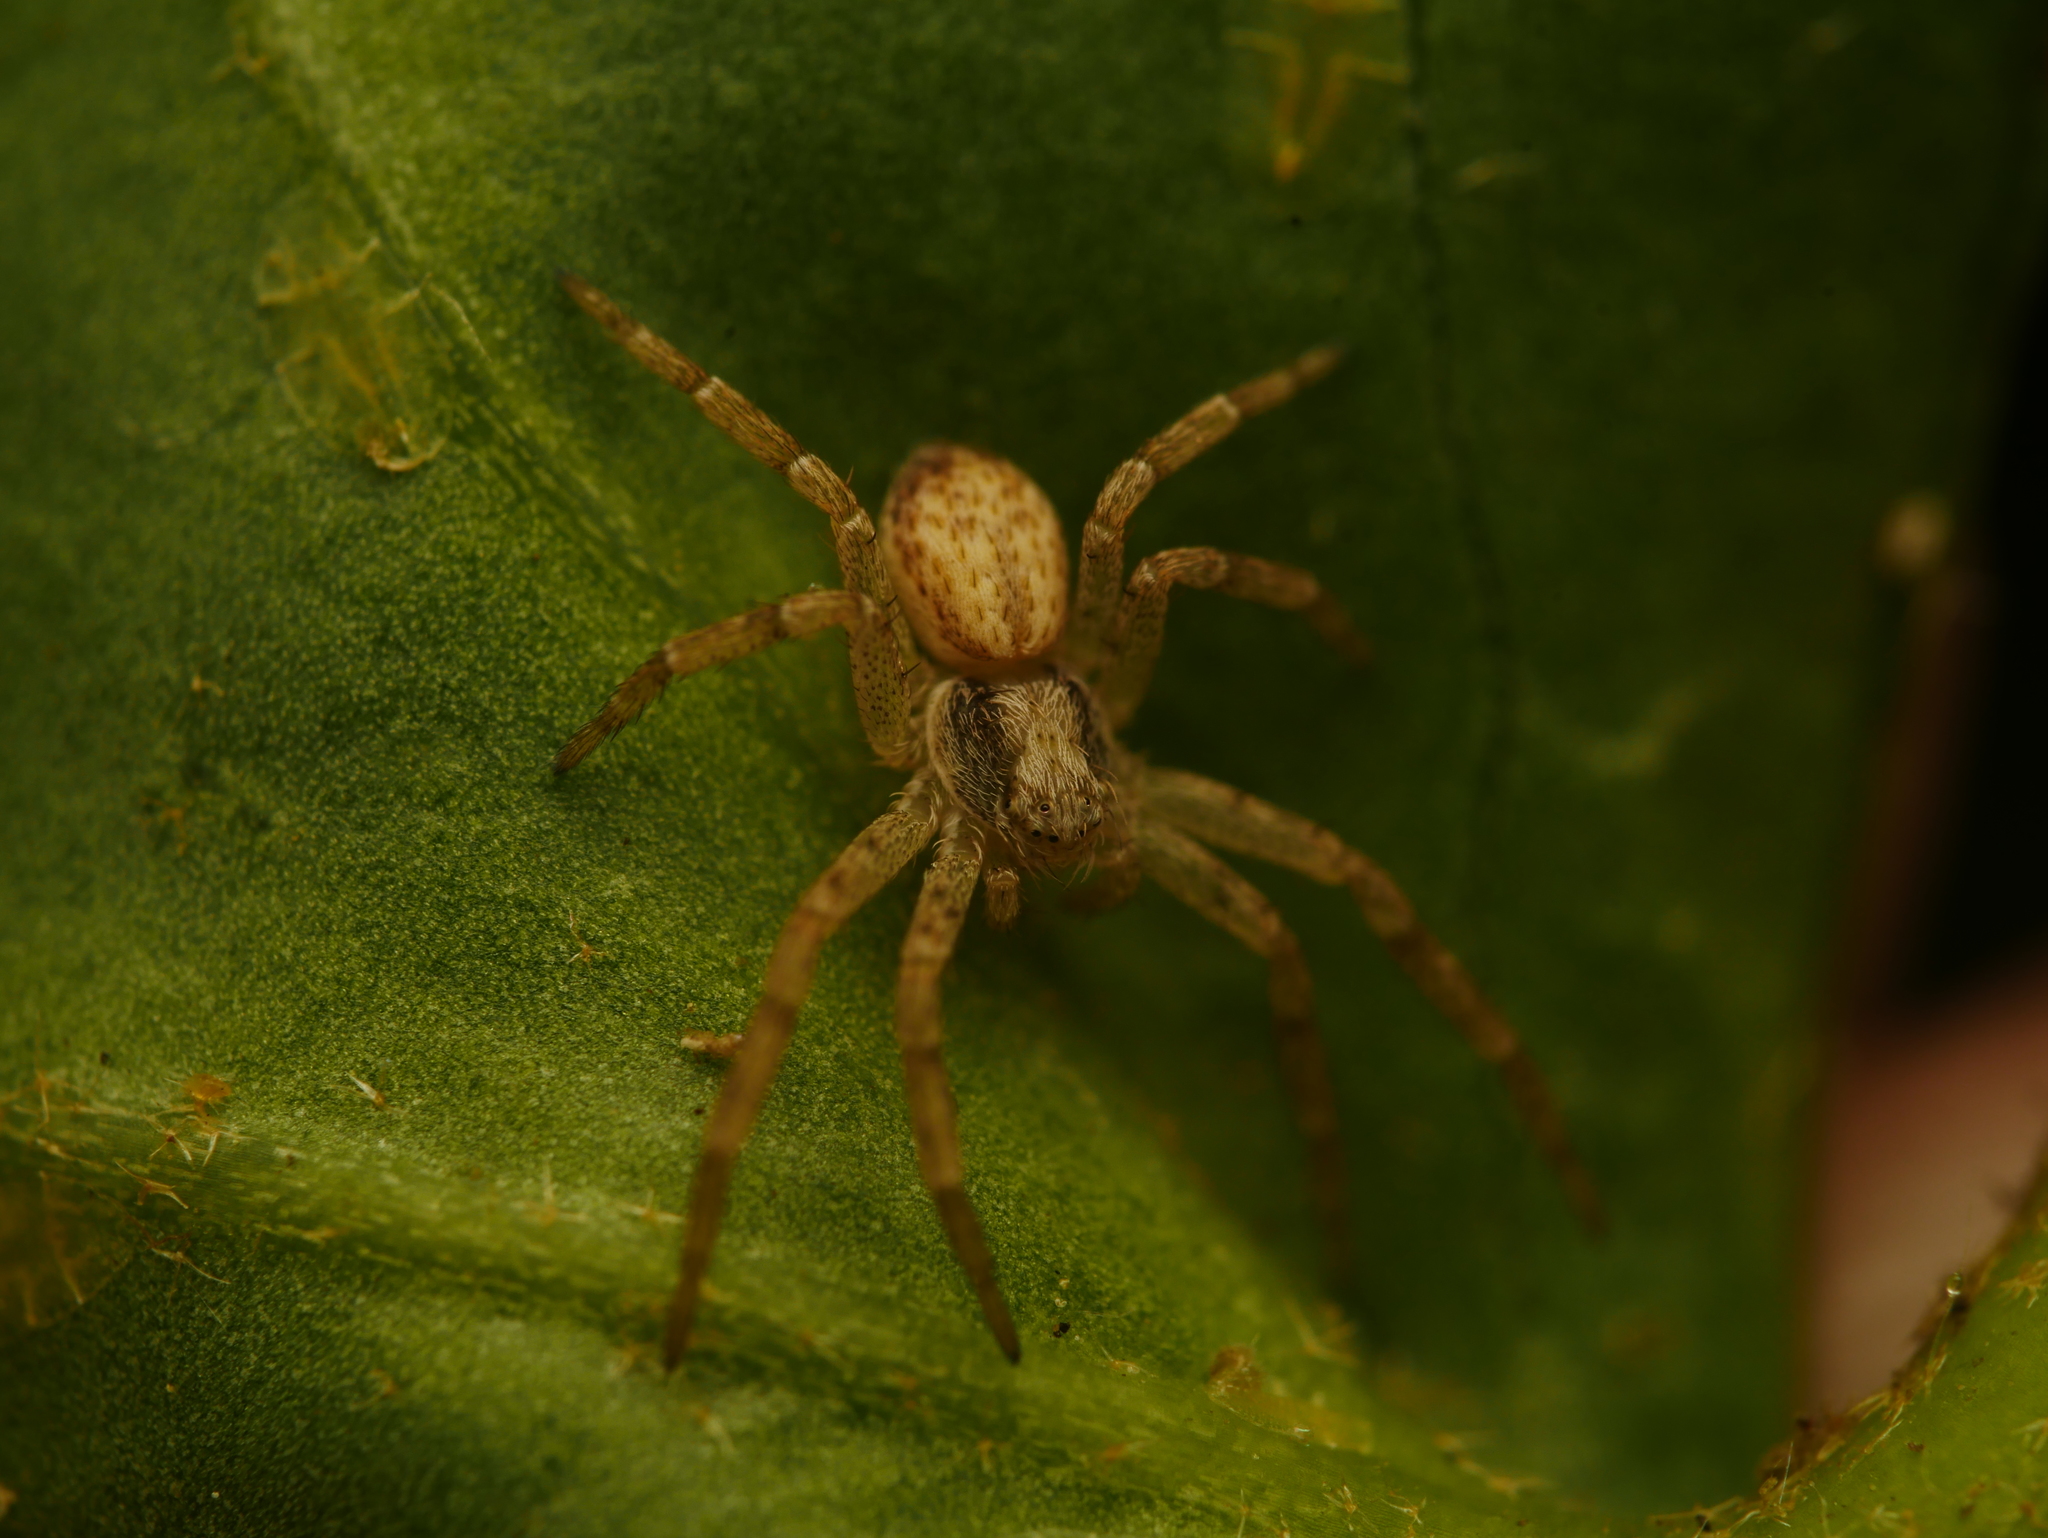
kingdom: Animalia
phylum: Arthropoda
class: Arachnida
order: Araneae
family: Philodromidae
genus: Philodromus
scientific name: Philodromus dispar
